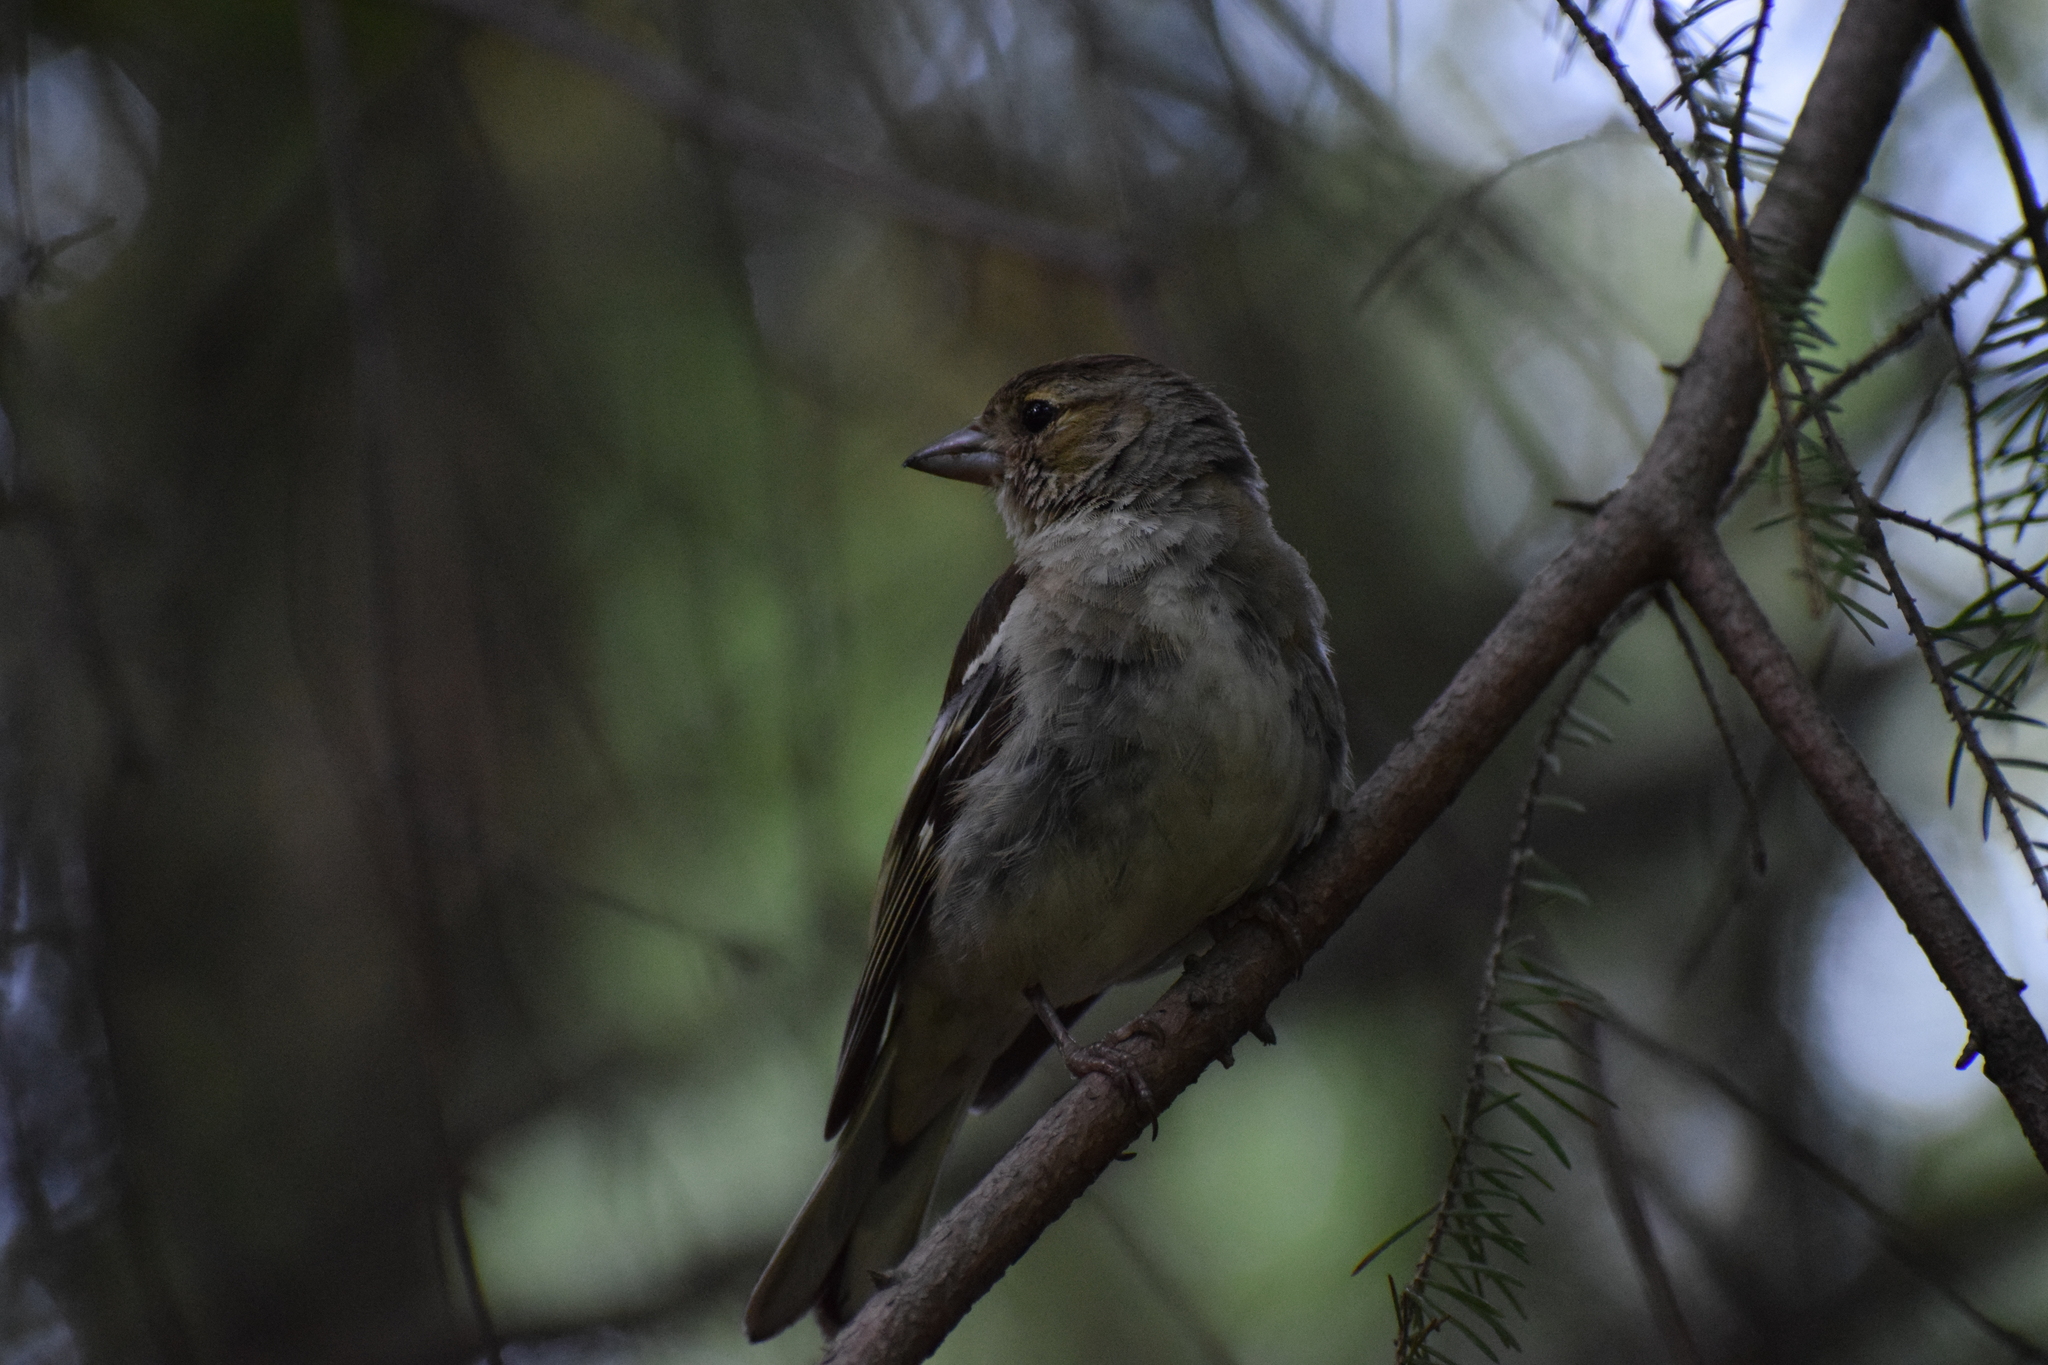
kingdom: Animalia
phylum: Chordata
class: Aves
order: Passeriformes
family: Fringillidae
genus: Fringilla
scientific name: Fringilla coelebs
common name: Common chaffinch
